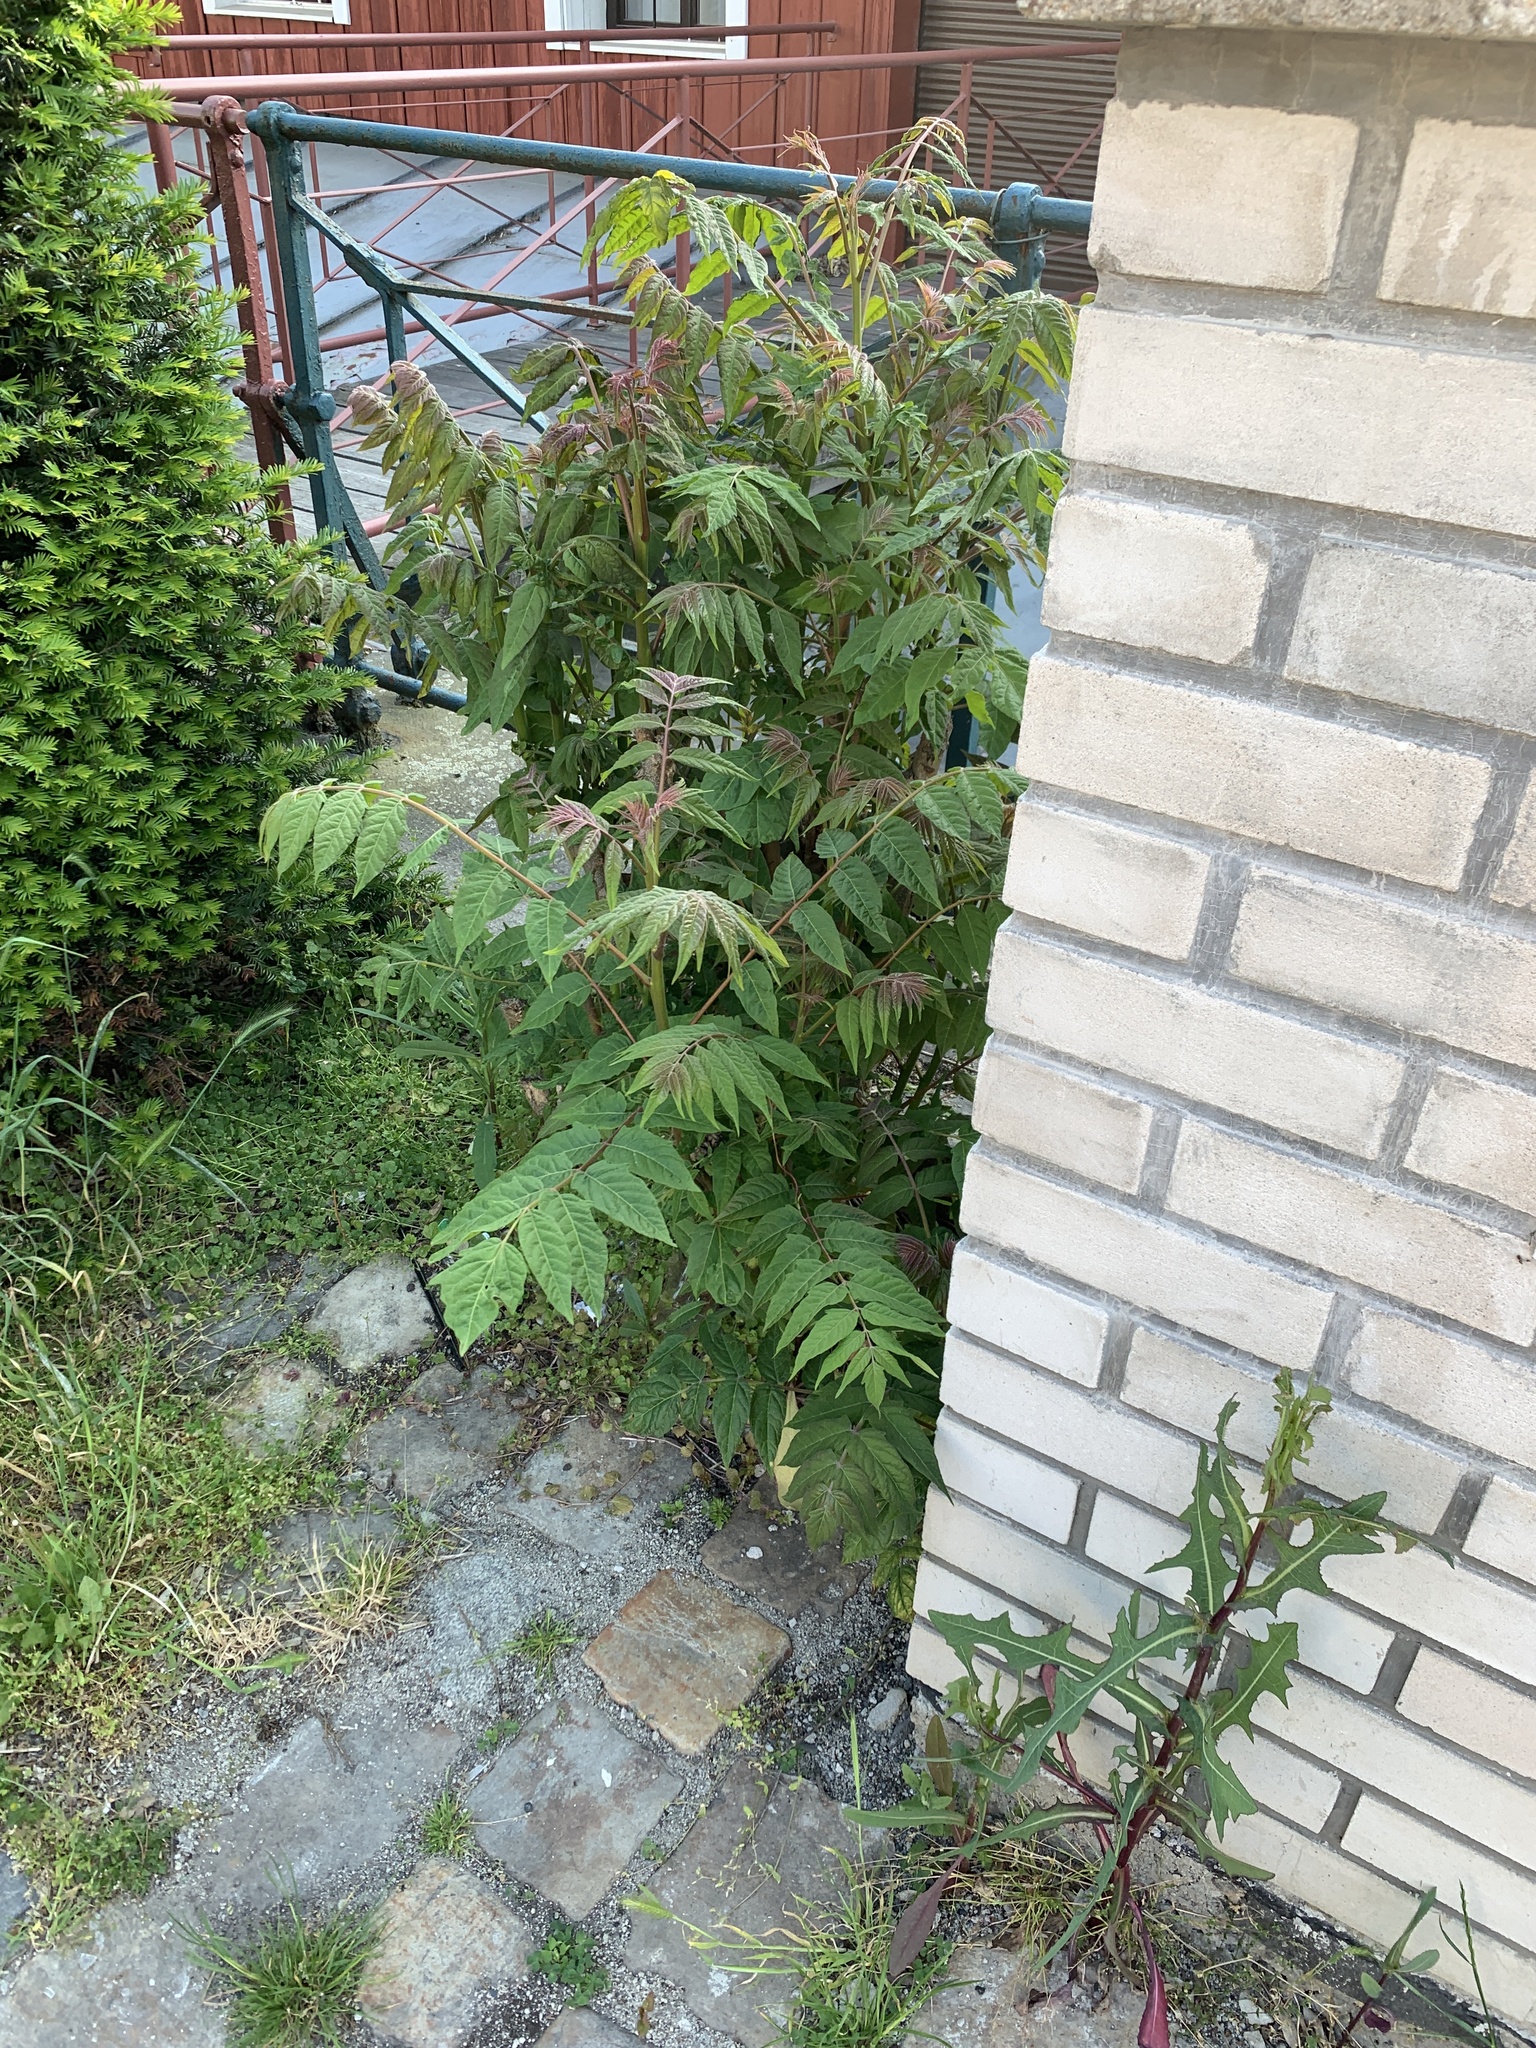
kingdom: Plantae
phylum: Tracheophyta
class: Magnoliopsida
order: Sapindales
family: Simaroubaceae
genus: Ailanthus
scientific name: Ailanthus altissima
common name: Tree-of-heaven
